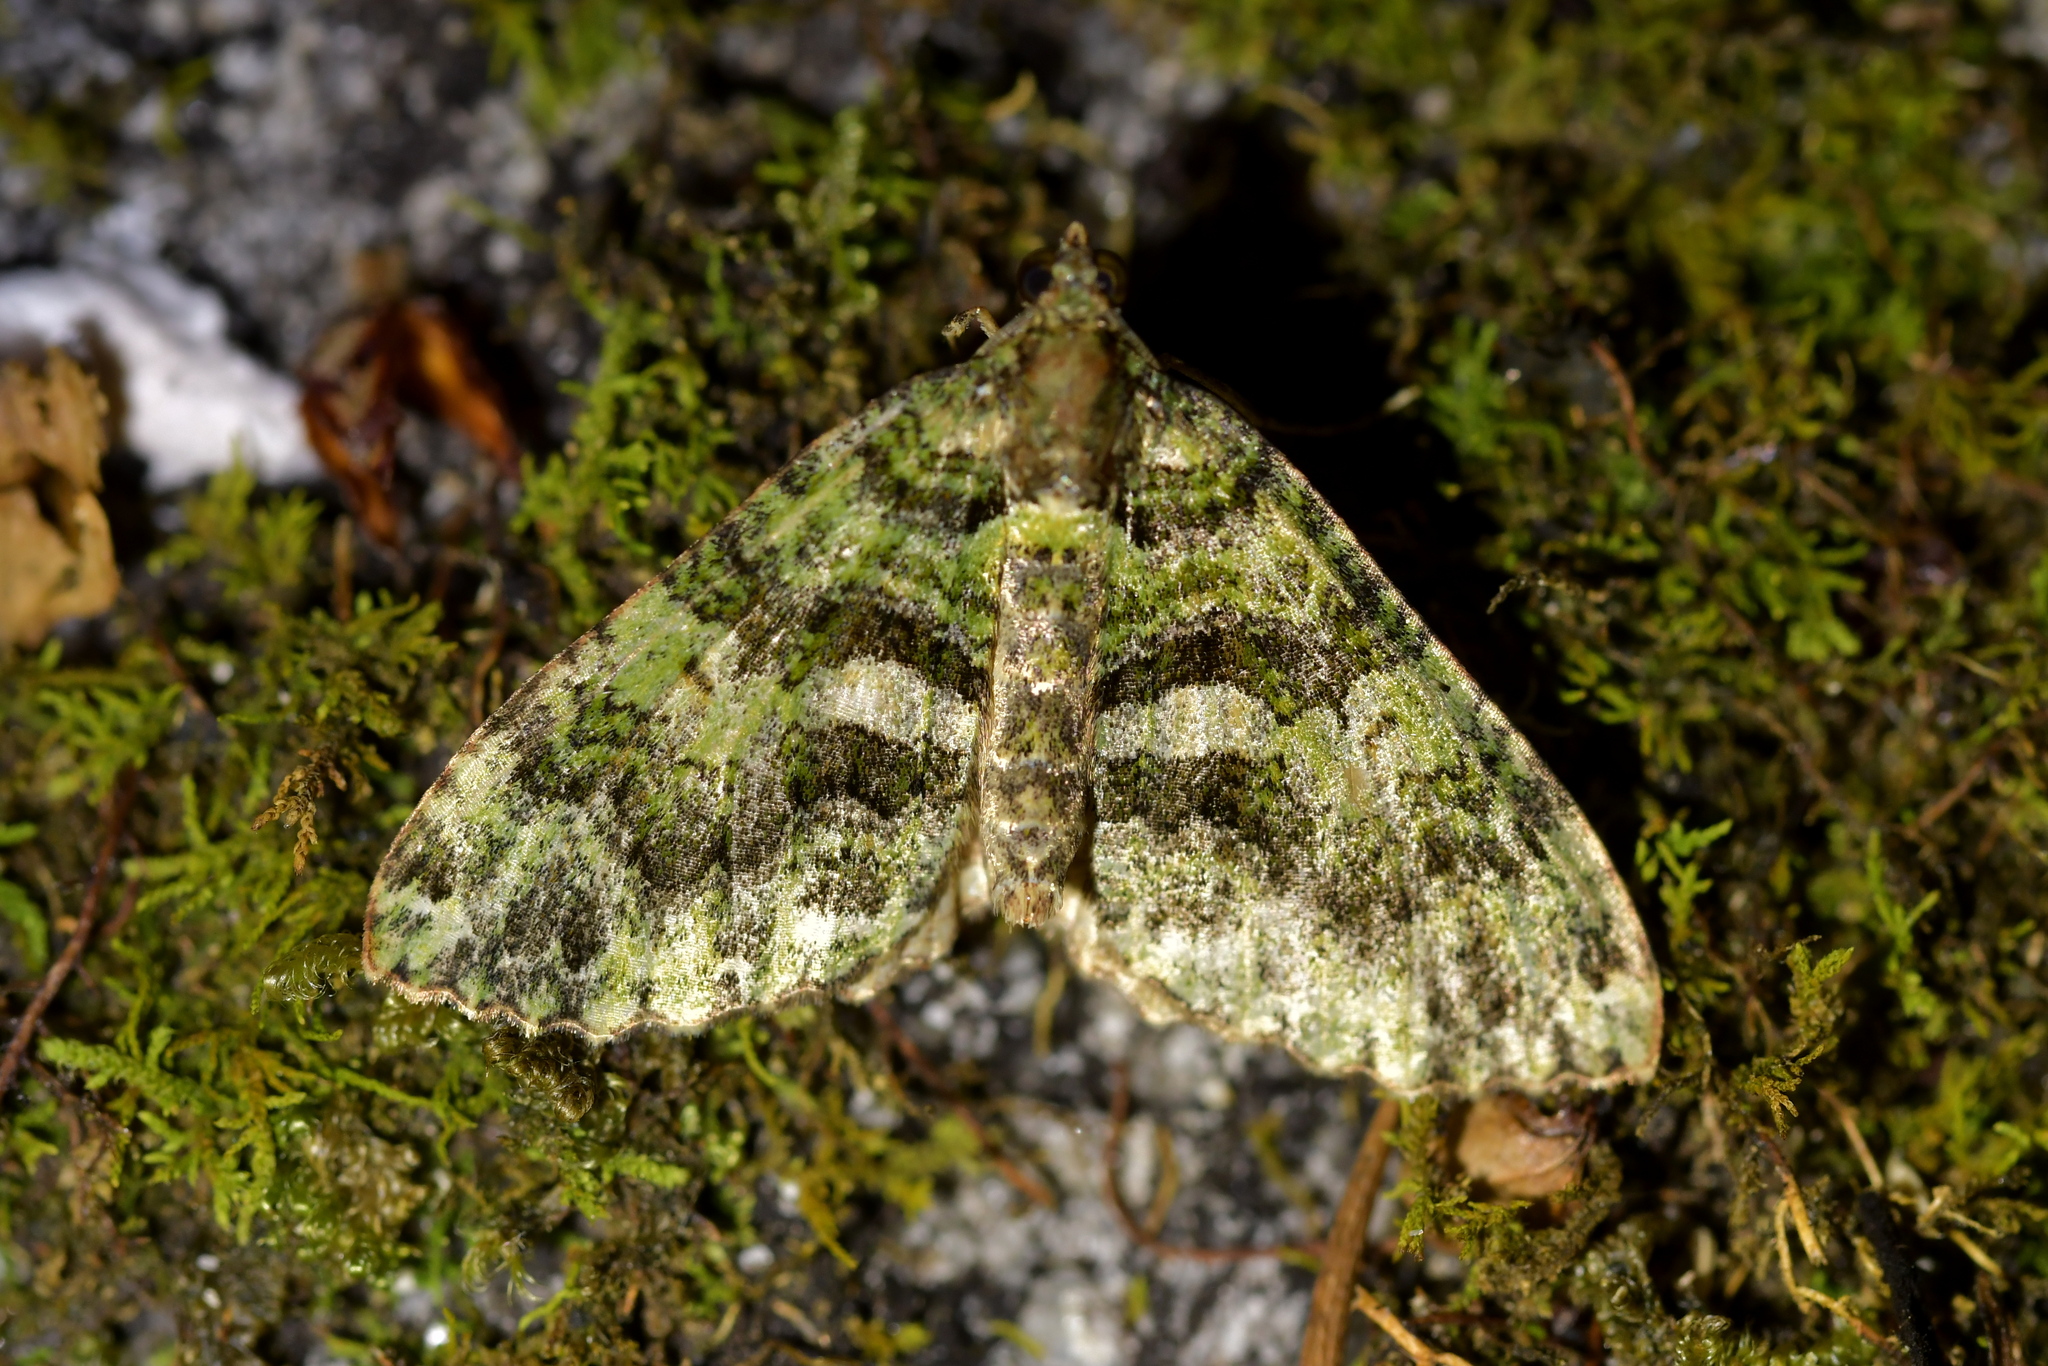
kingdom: Animalia
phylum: Arthropoda
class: Insecta
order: Lepidoptera
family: Geometridae
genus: Austrocidaria
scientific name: Austrocidaria similata
